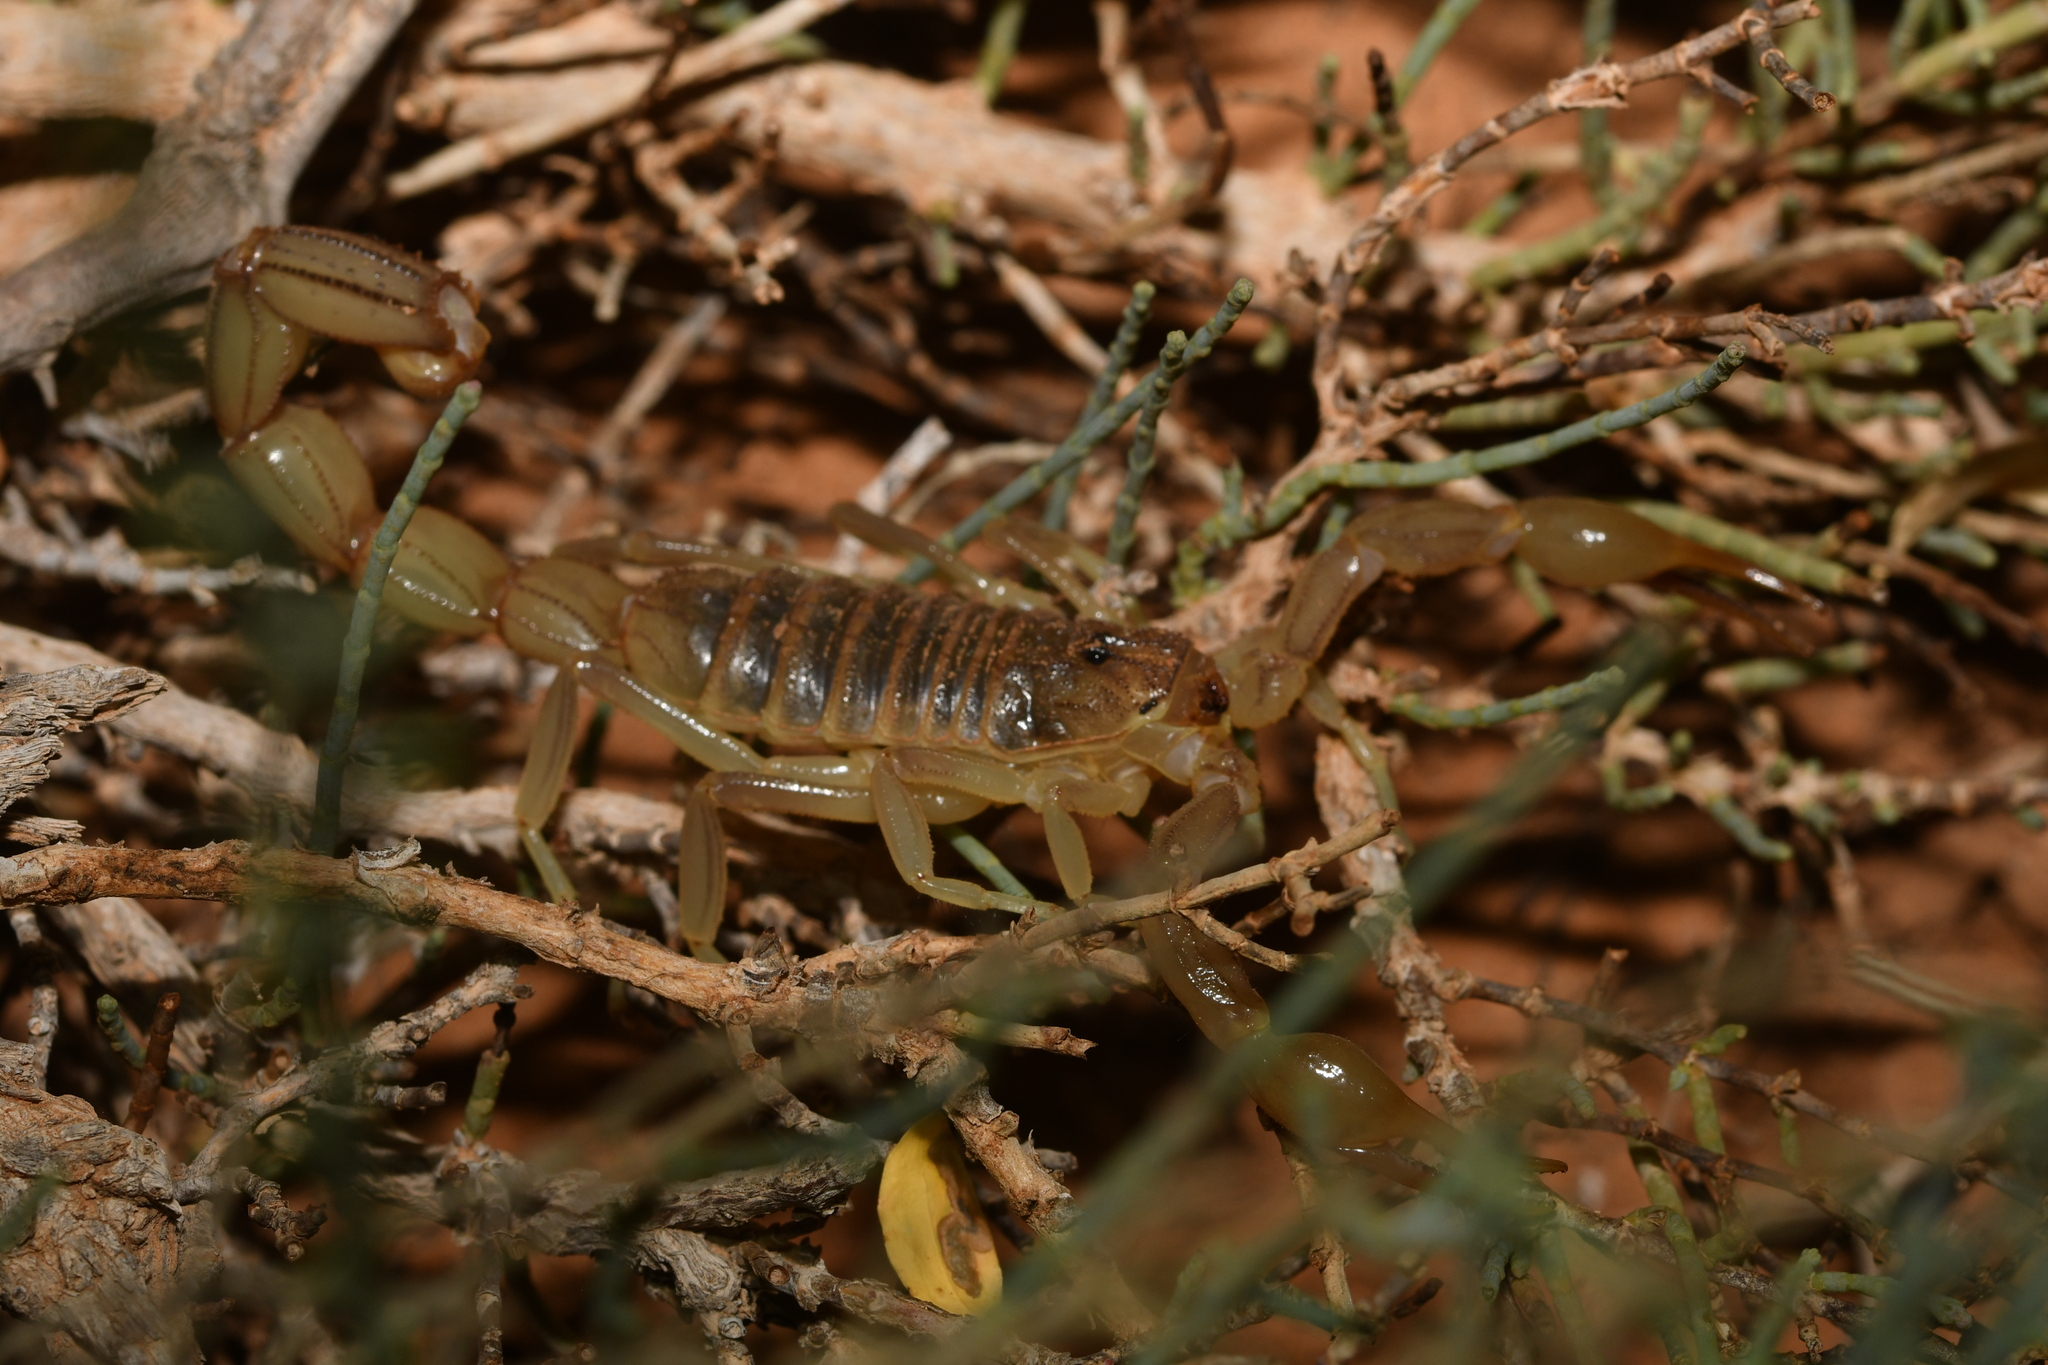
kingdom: Animalia
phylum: Arthropoda
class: Arachnida
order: Scorpiones
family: Buthidae
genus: Androctonus
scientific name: Androctonus amoreuxi
